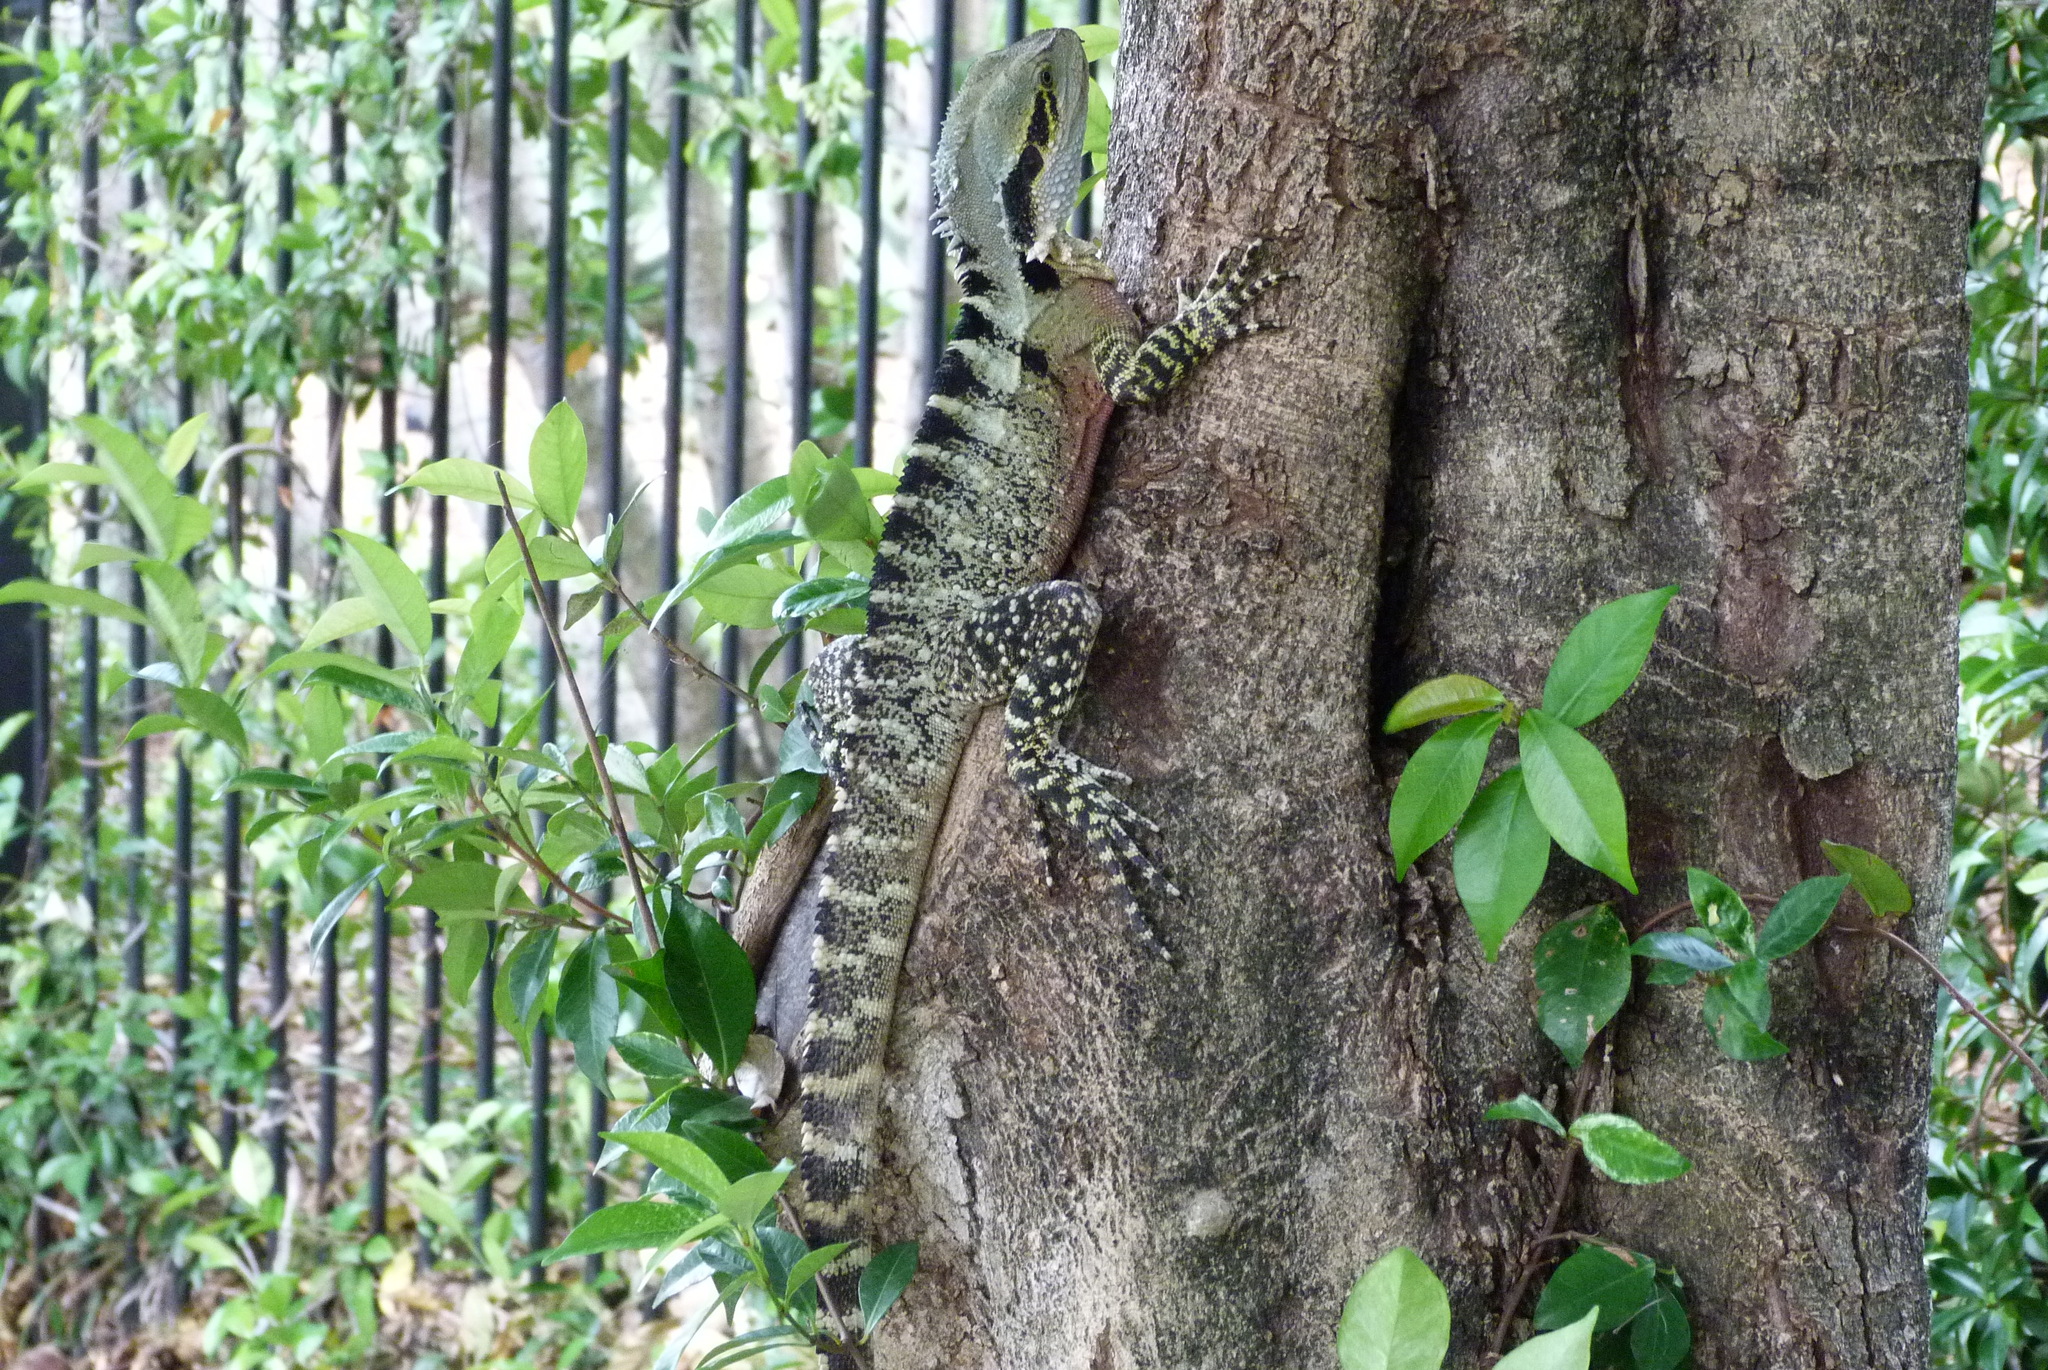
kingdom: Animalia
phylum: Chordata
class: Squamata
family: Agamidae
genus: Intellagama
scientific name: Intellagama lesueurii
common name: Eastern water dragon
